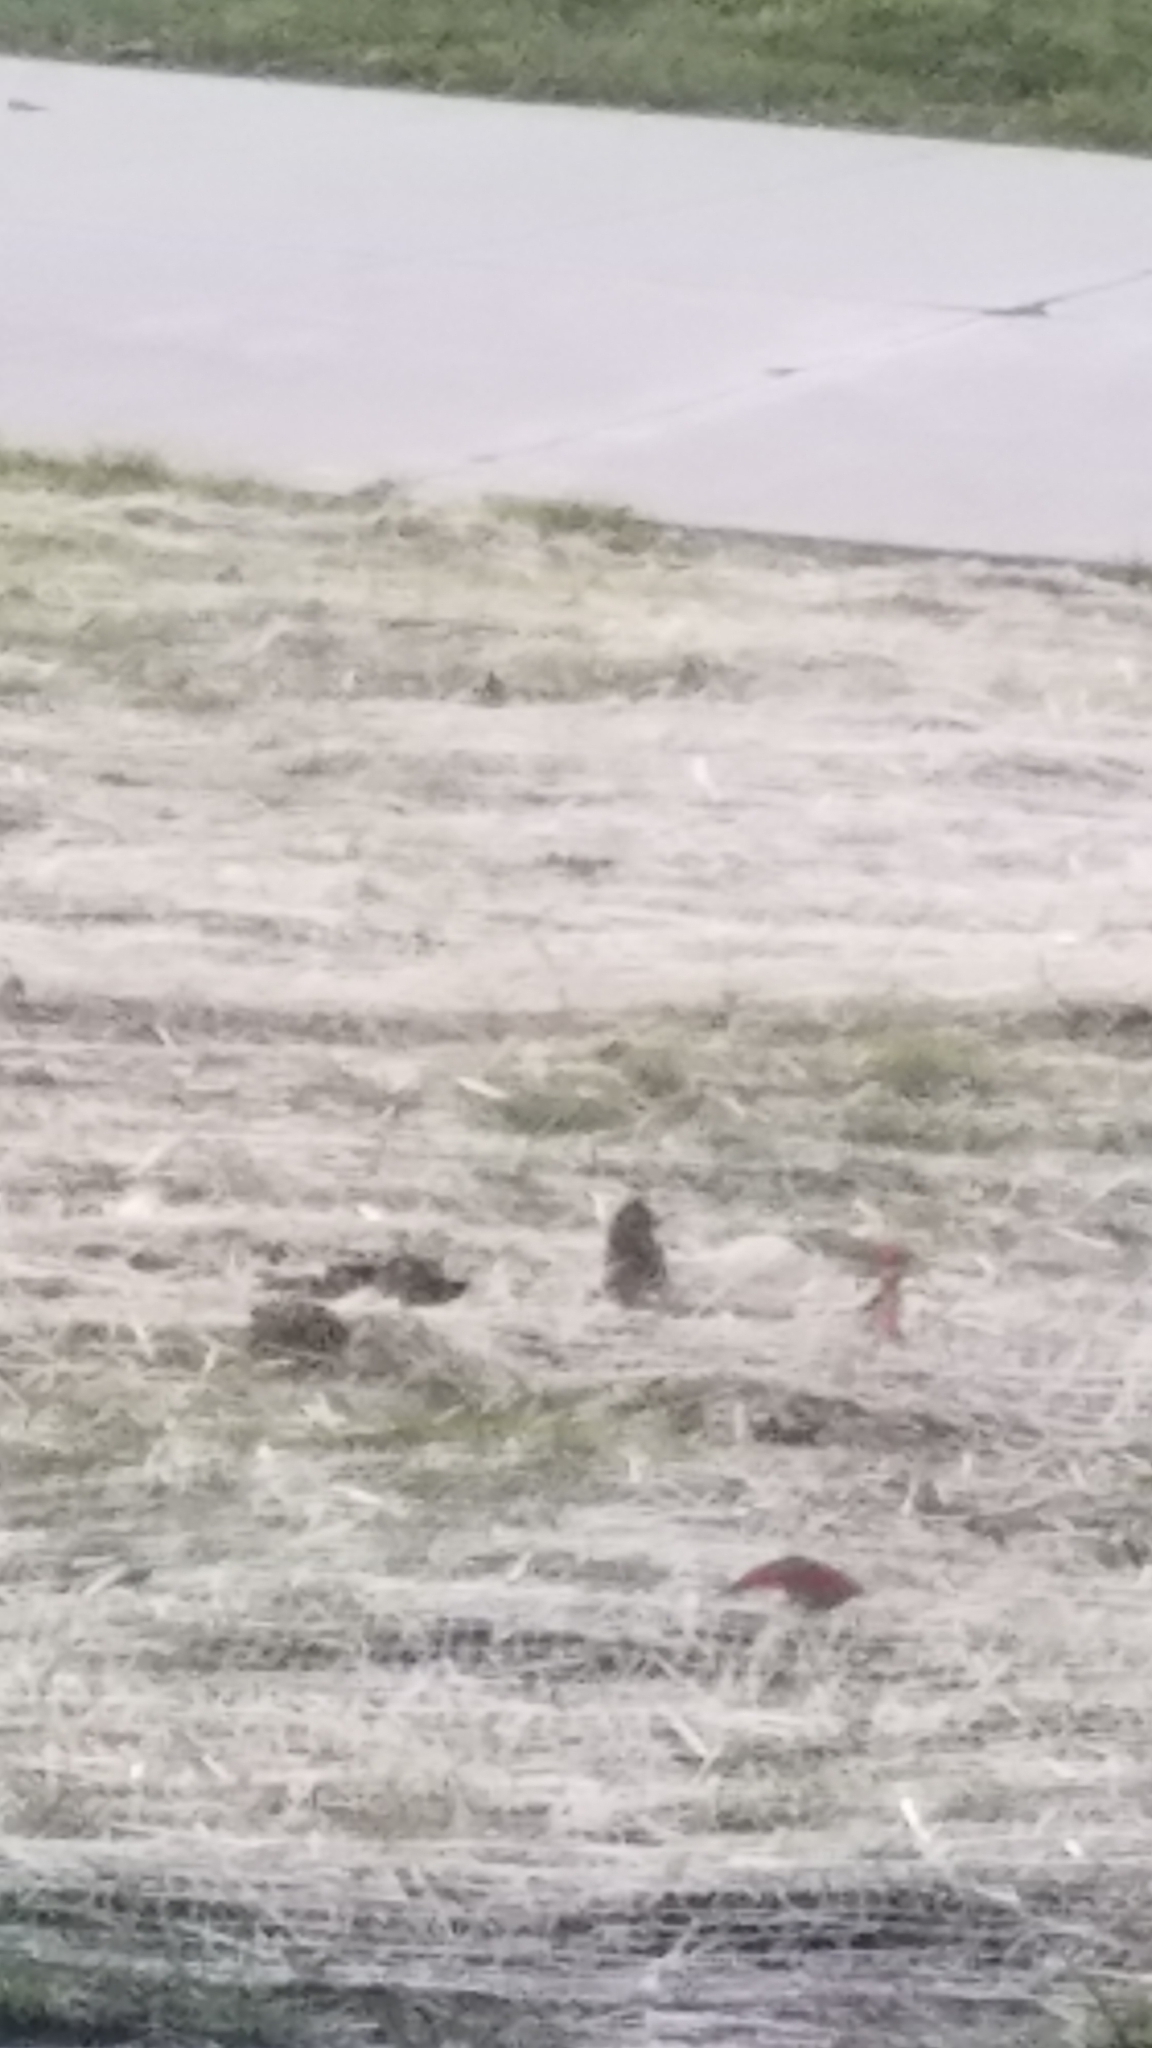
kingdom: Animalia
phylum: Chordata
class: Aves
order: Passeriformes
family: Passeridae
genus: Passer
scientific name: Passer domesticus
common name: House sparrow
